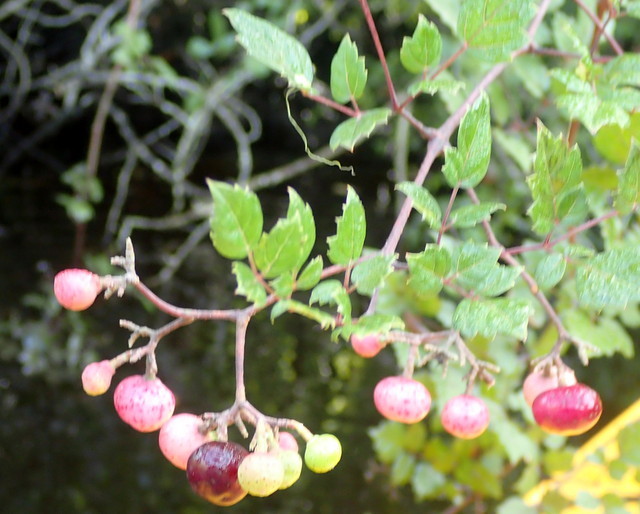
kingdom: Plantae
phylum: Tracheophyta
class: Magnoliopsida
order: Vitales
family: Vitaceae
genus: Nekemias
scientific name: Nekemias arborea
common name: Peppervine
